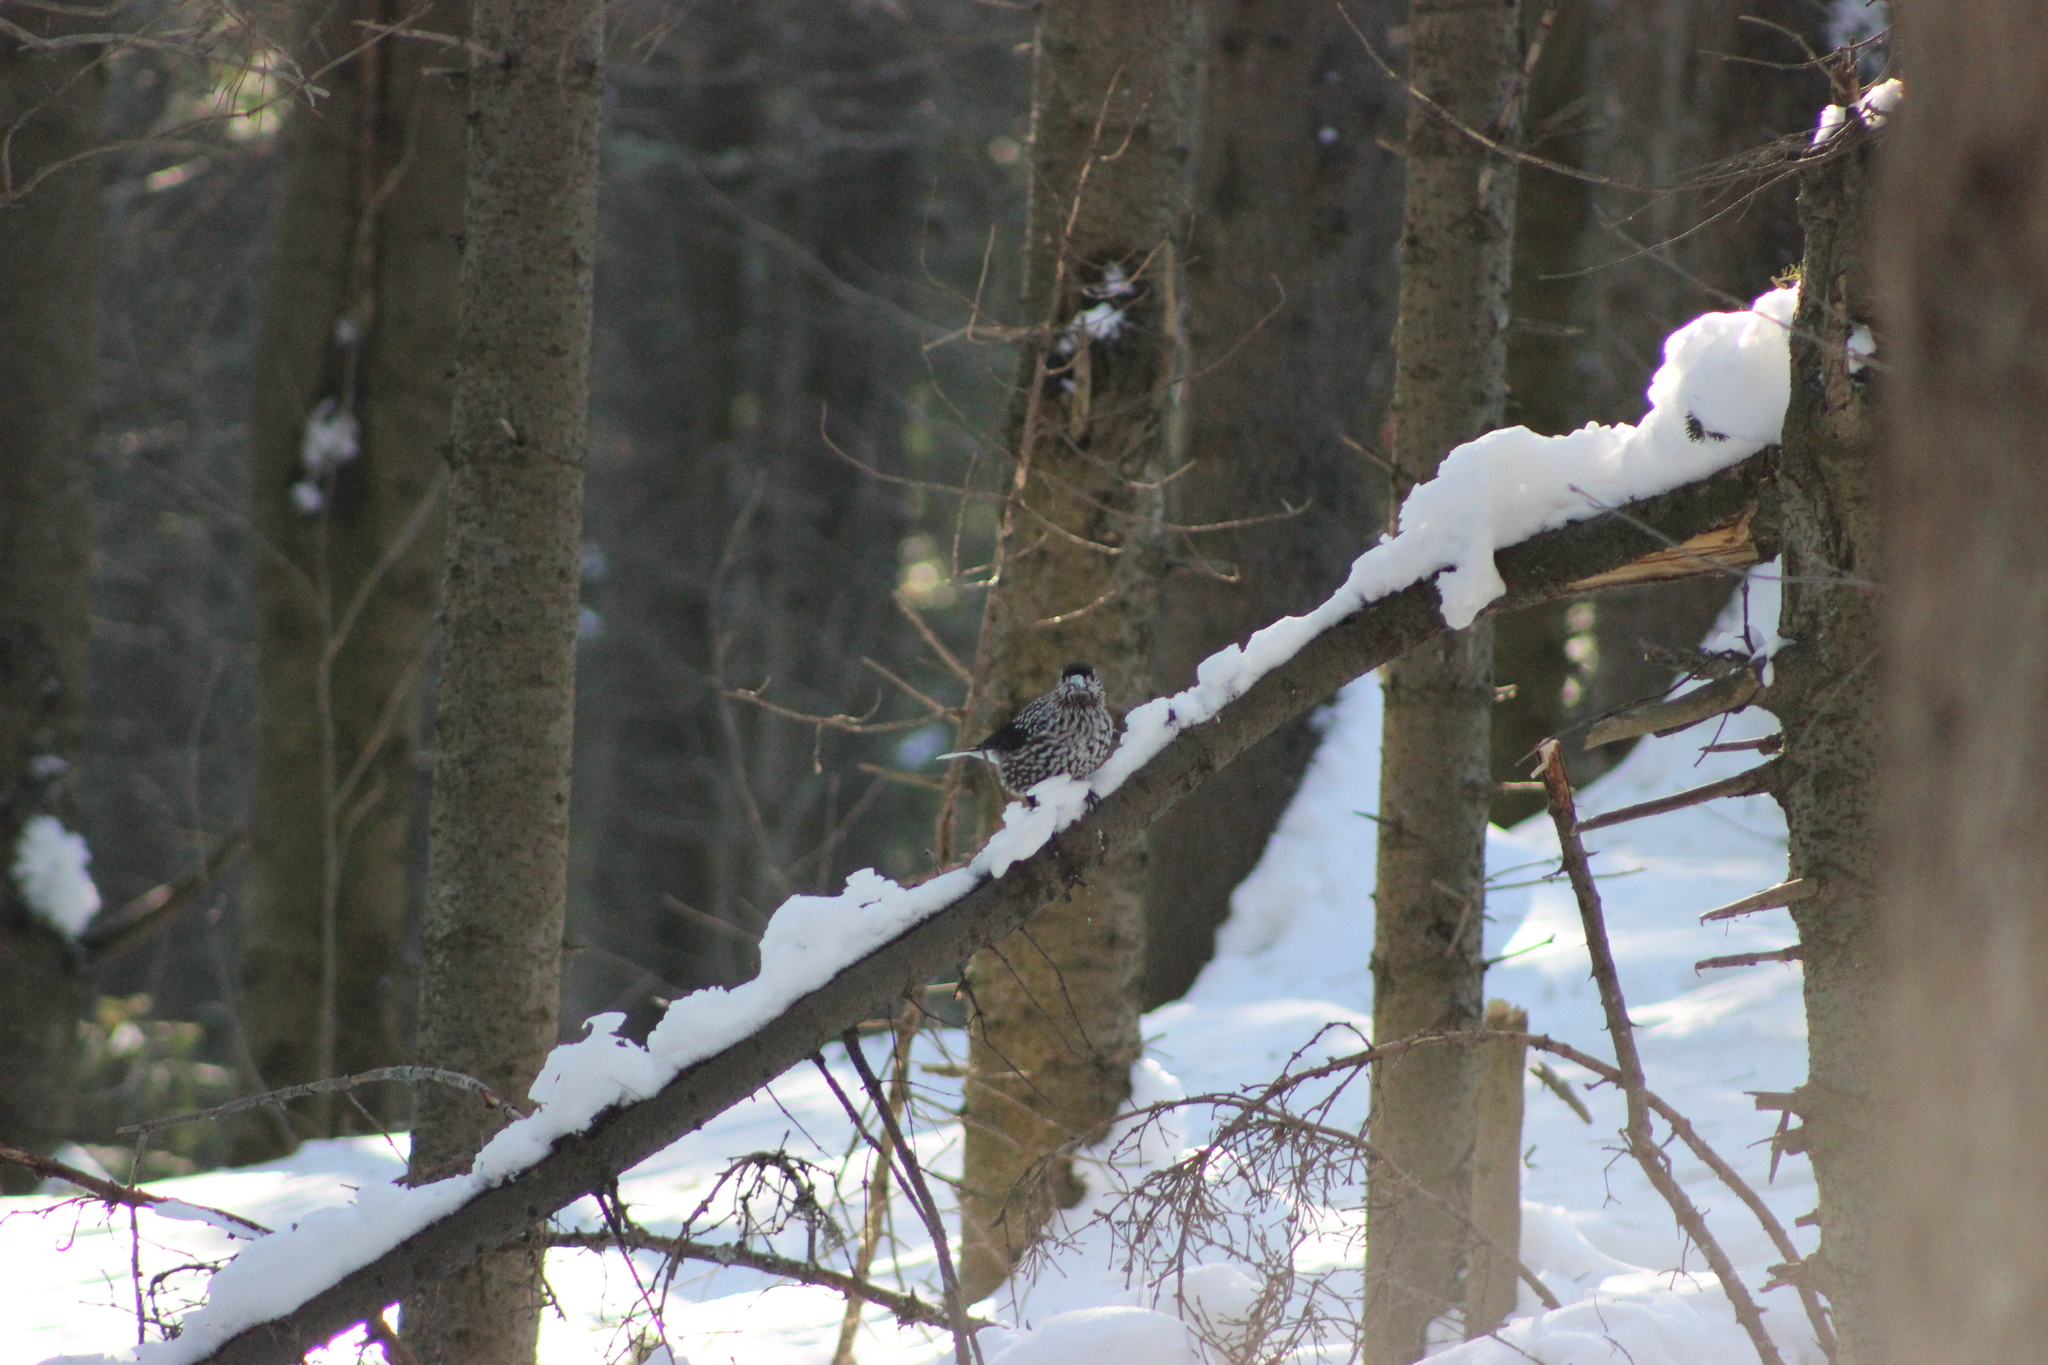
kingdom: Animalia
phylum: Chordata
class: Aves
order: Passeriformes
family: Corvidae
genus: Nucifraga
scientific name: Nucifraga caryocatactes
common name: Spotted nutcracker
